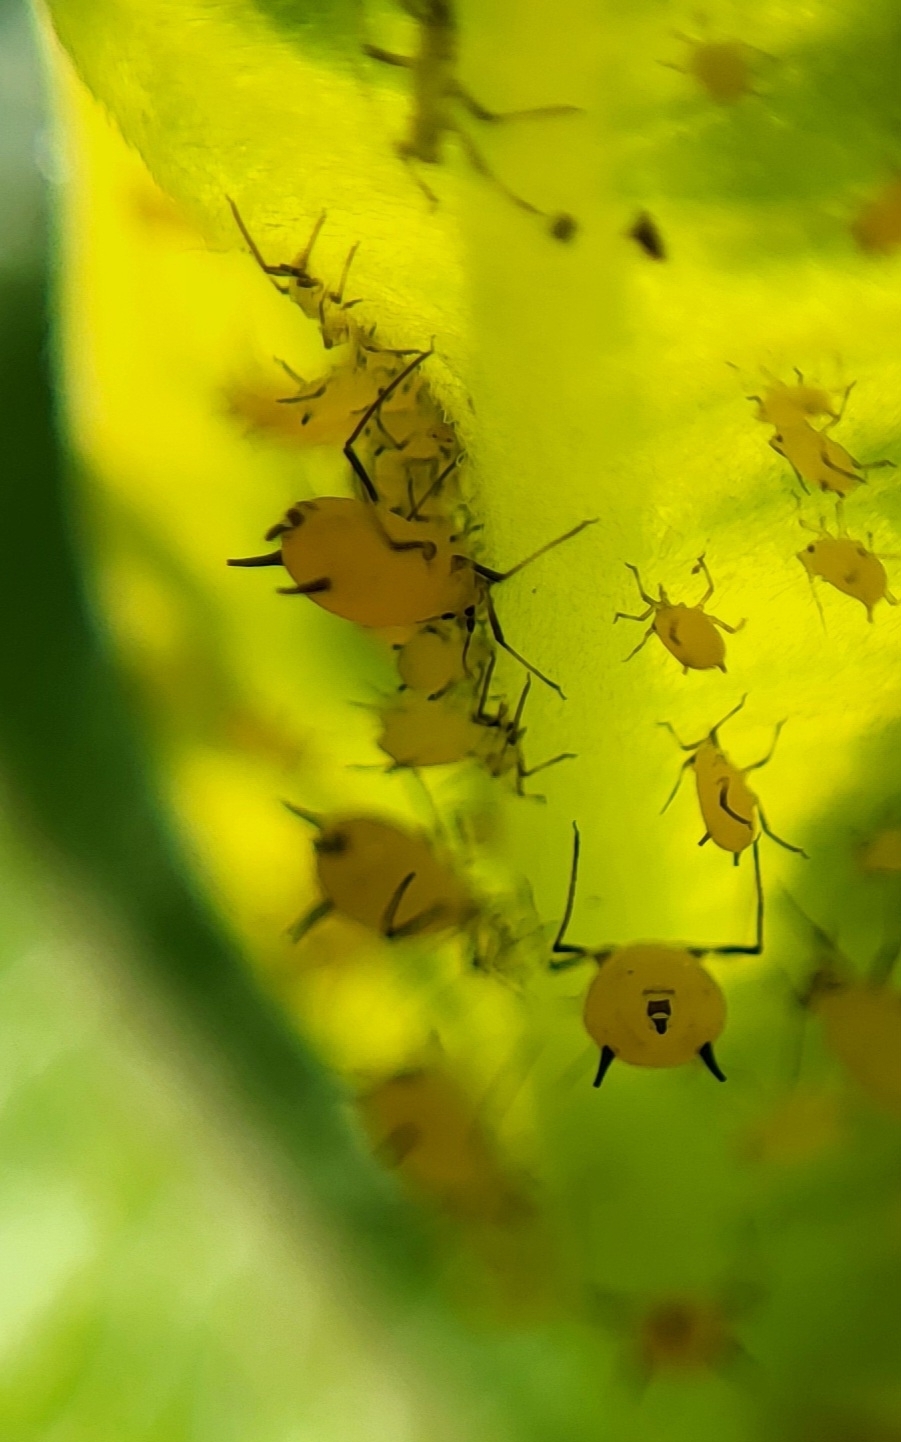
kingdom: Animalia
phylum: Arthropoda
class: Insecta
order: Hemiptera
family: Aphididae
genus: Aphis
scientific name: Aphis nerii
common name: Oleander aphid
